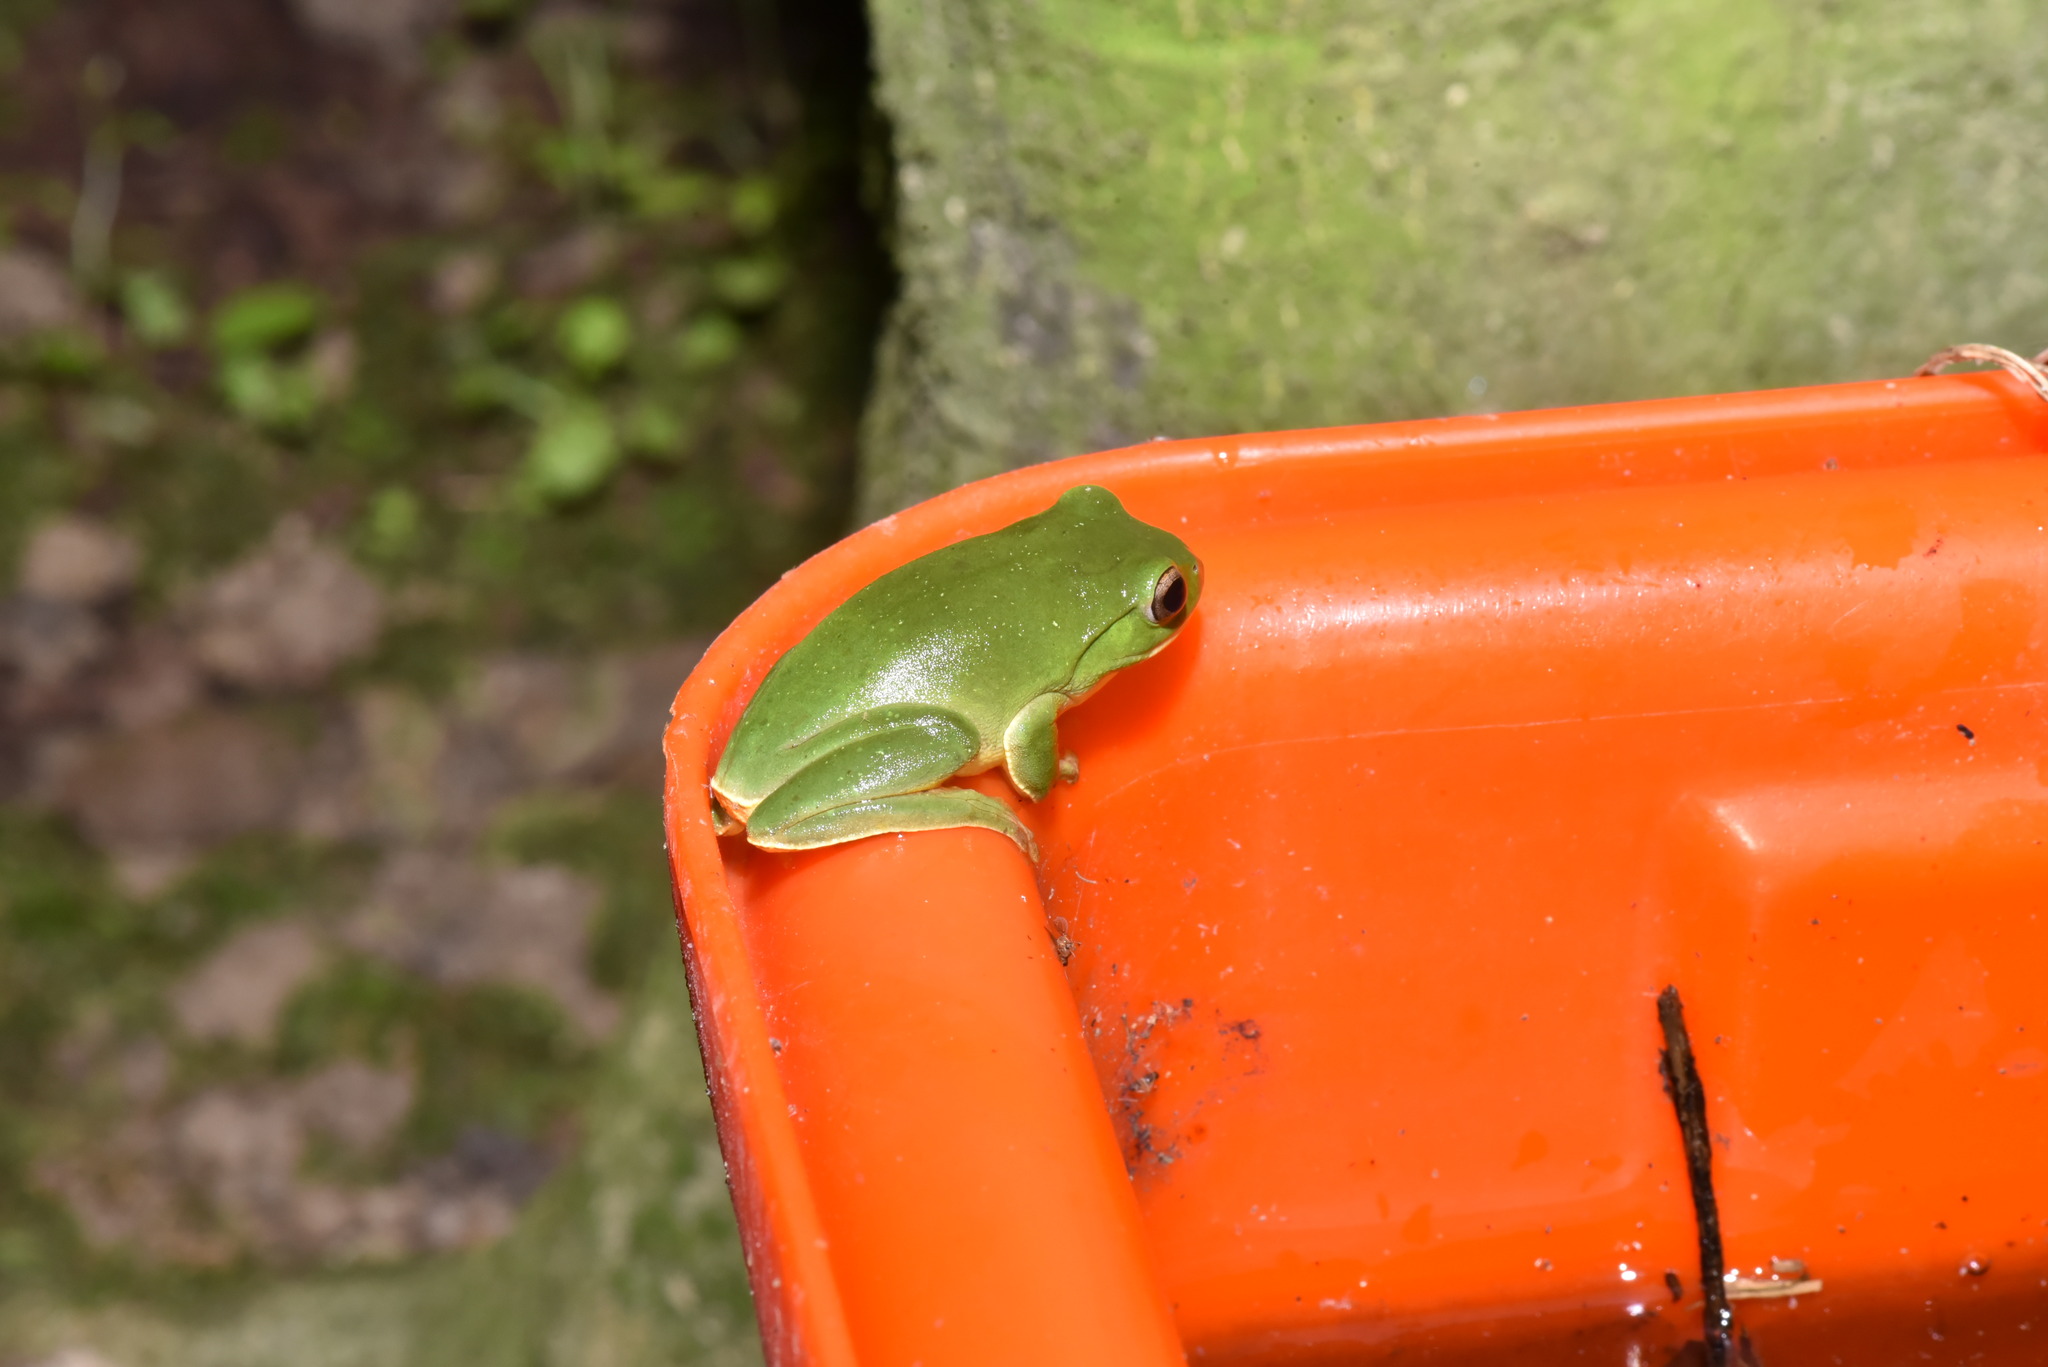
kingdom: Animalia
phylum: Chordata
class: Amphibia
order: Anura
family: Rhacophoridae
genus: Zhangixalus
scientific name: Zhangixalus moltrechti
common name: Moltrecht's treefrog
